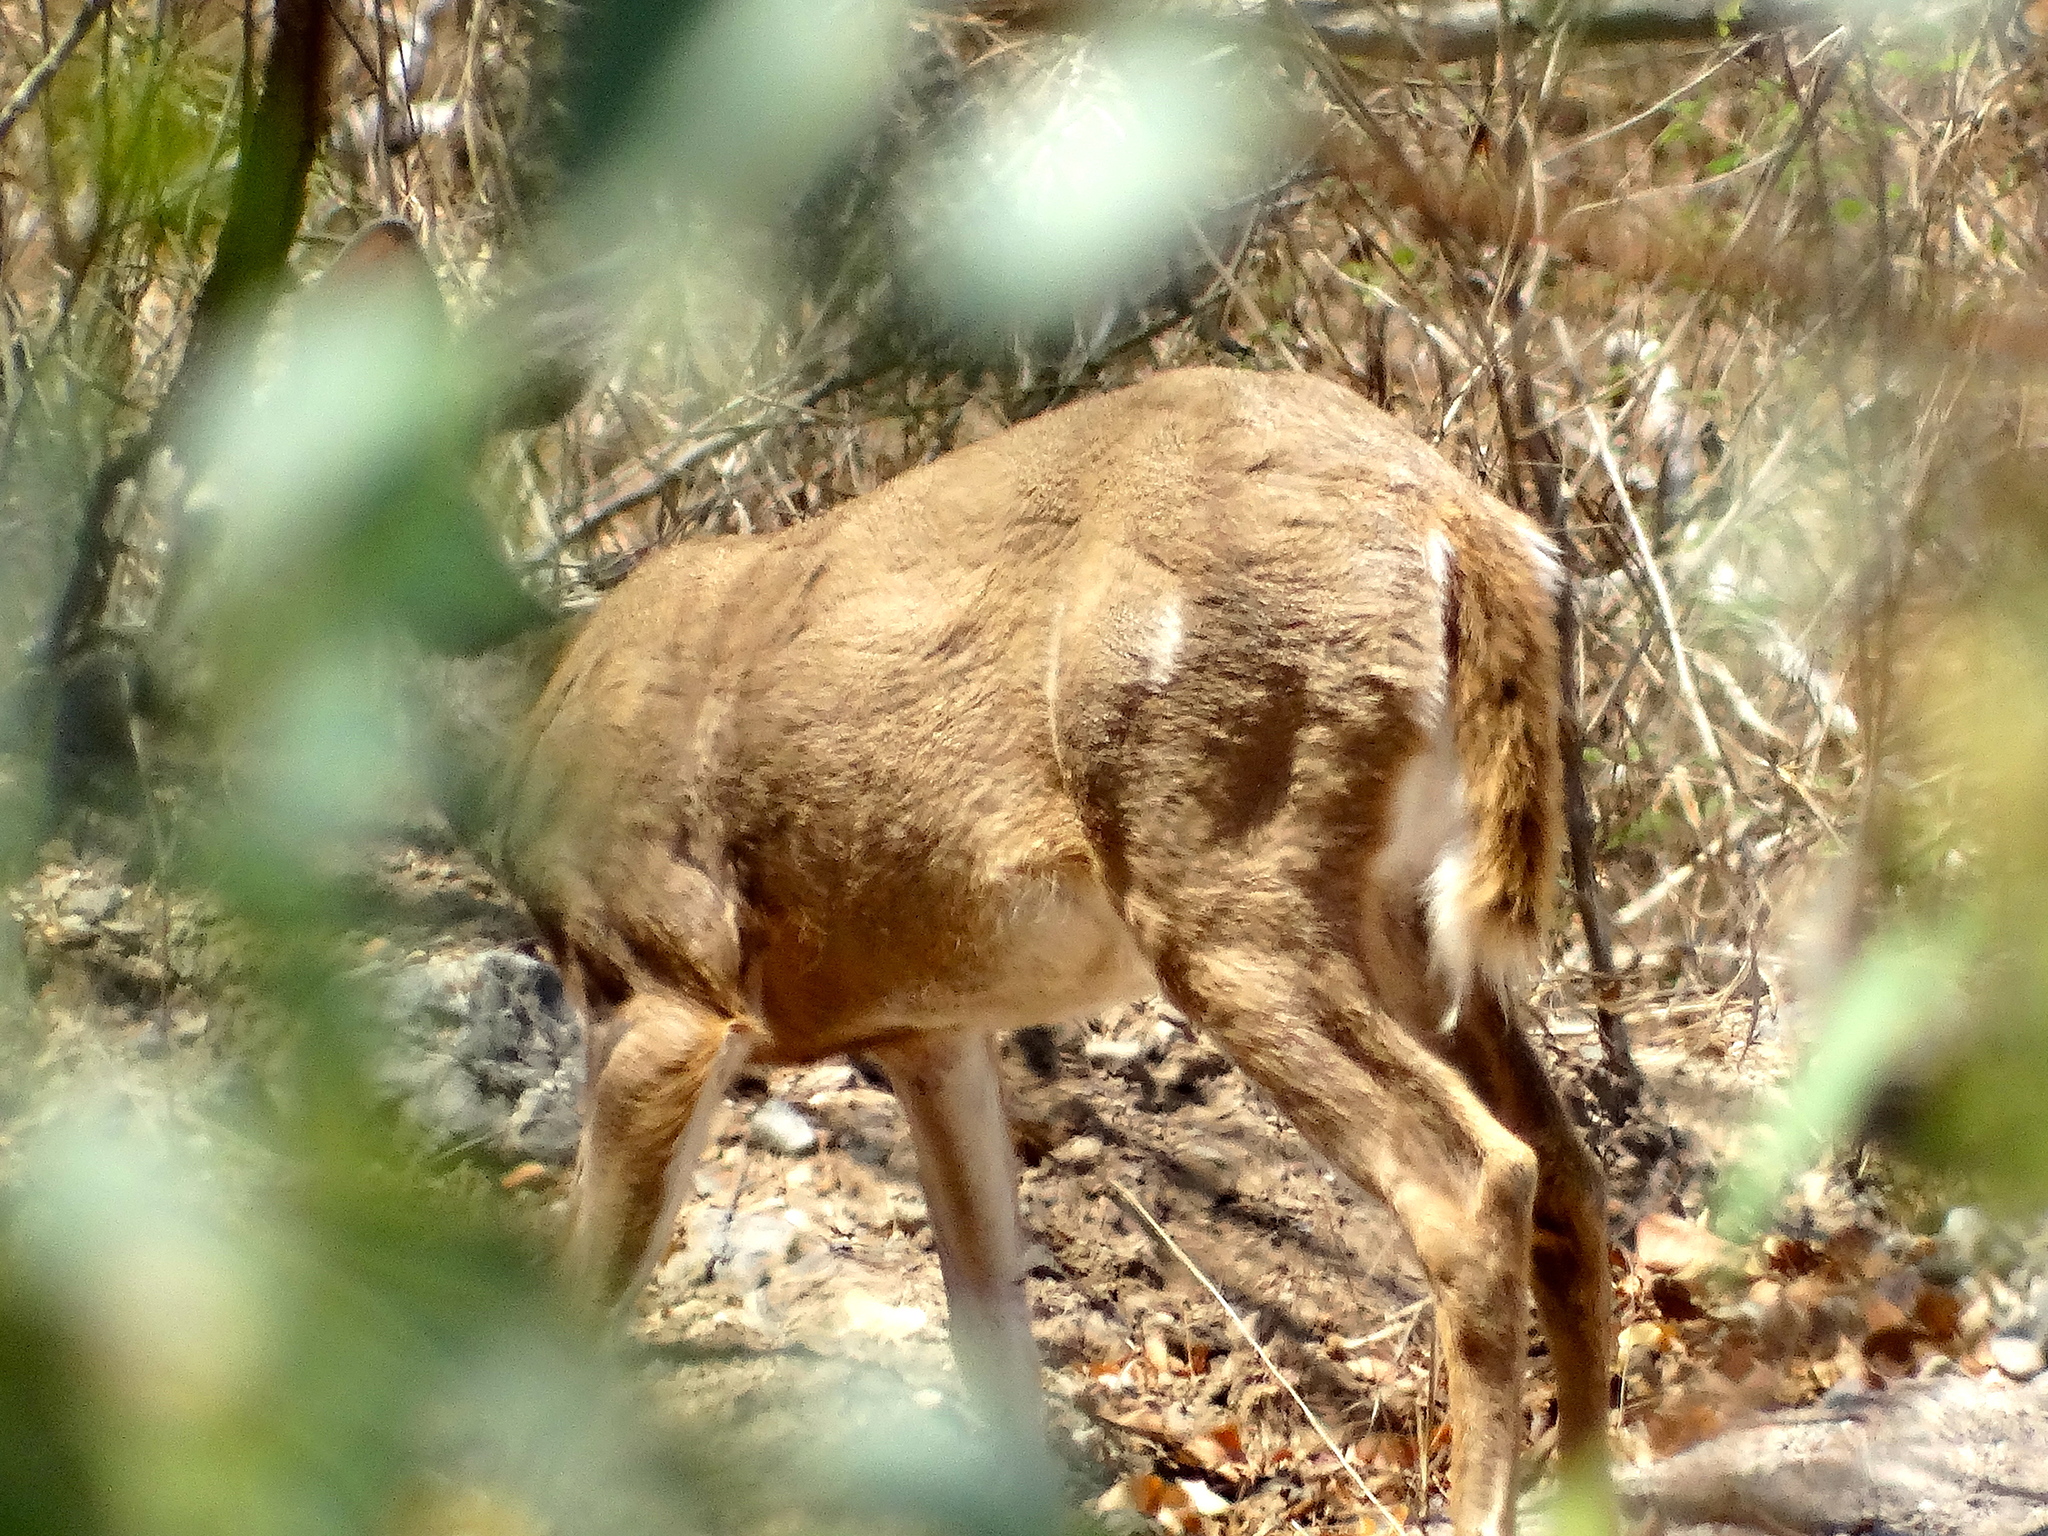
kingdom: Animalia
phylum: Chordata
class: Mammalia
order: Artiodactyla
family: Cervidae
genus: Odocoileus
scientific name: Odocoileus virginianus
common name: White-tailed deer
